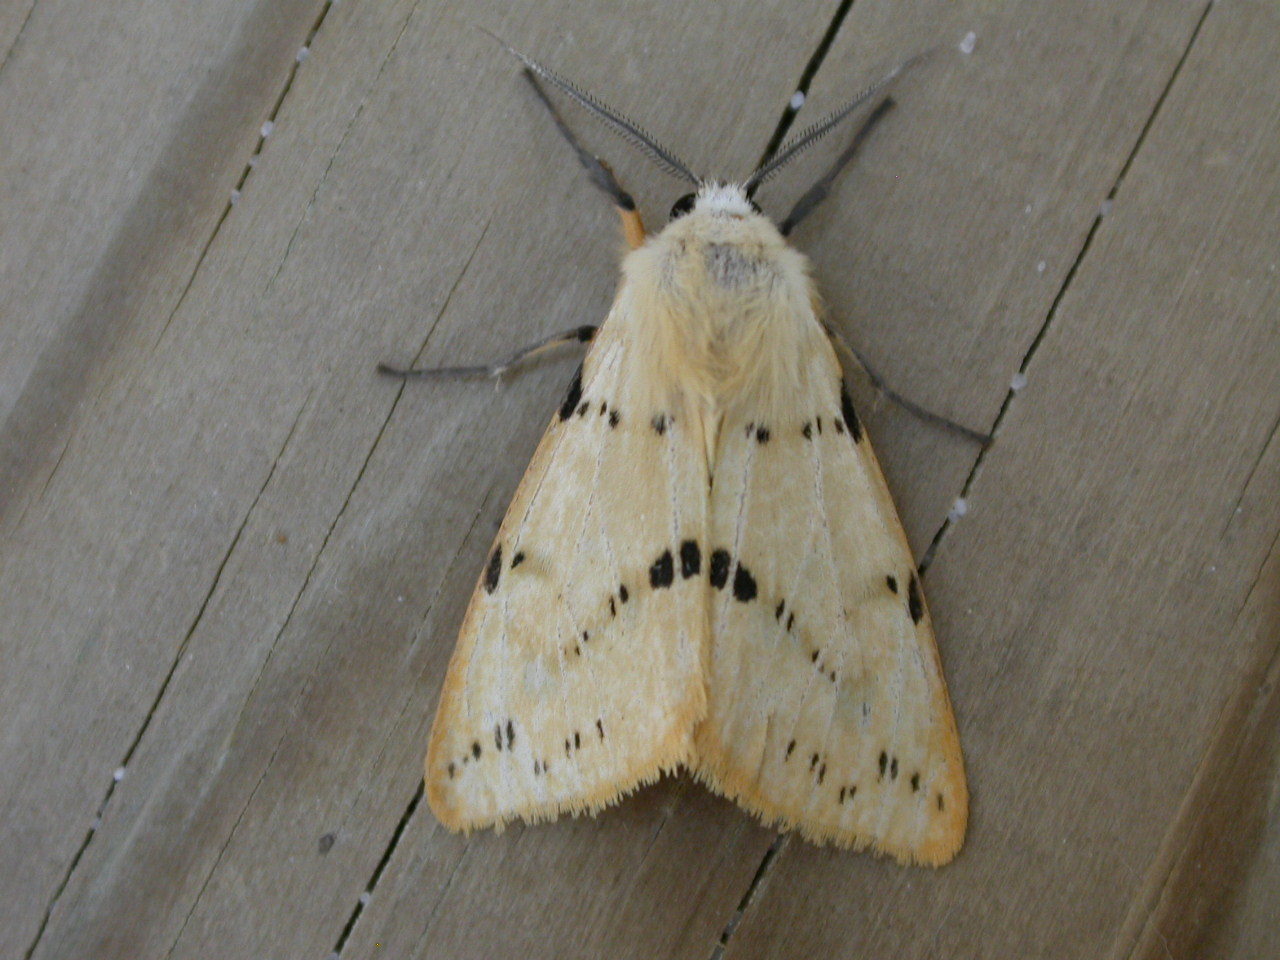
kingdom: Animalia
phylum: Arthropoda
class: Insecta
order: Lepidoptera
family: Erebidae
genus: Spilarctia
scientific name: Spilarctia lutea
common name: Buff ermine
